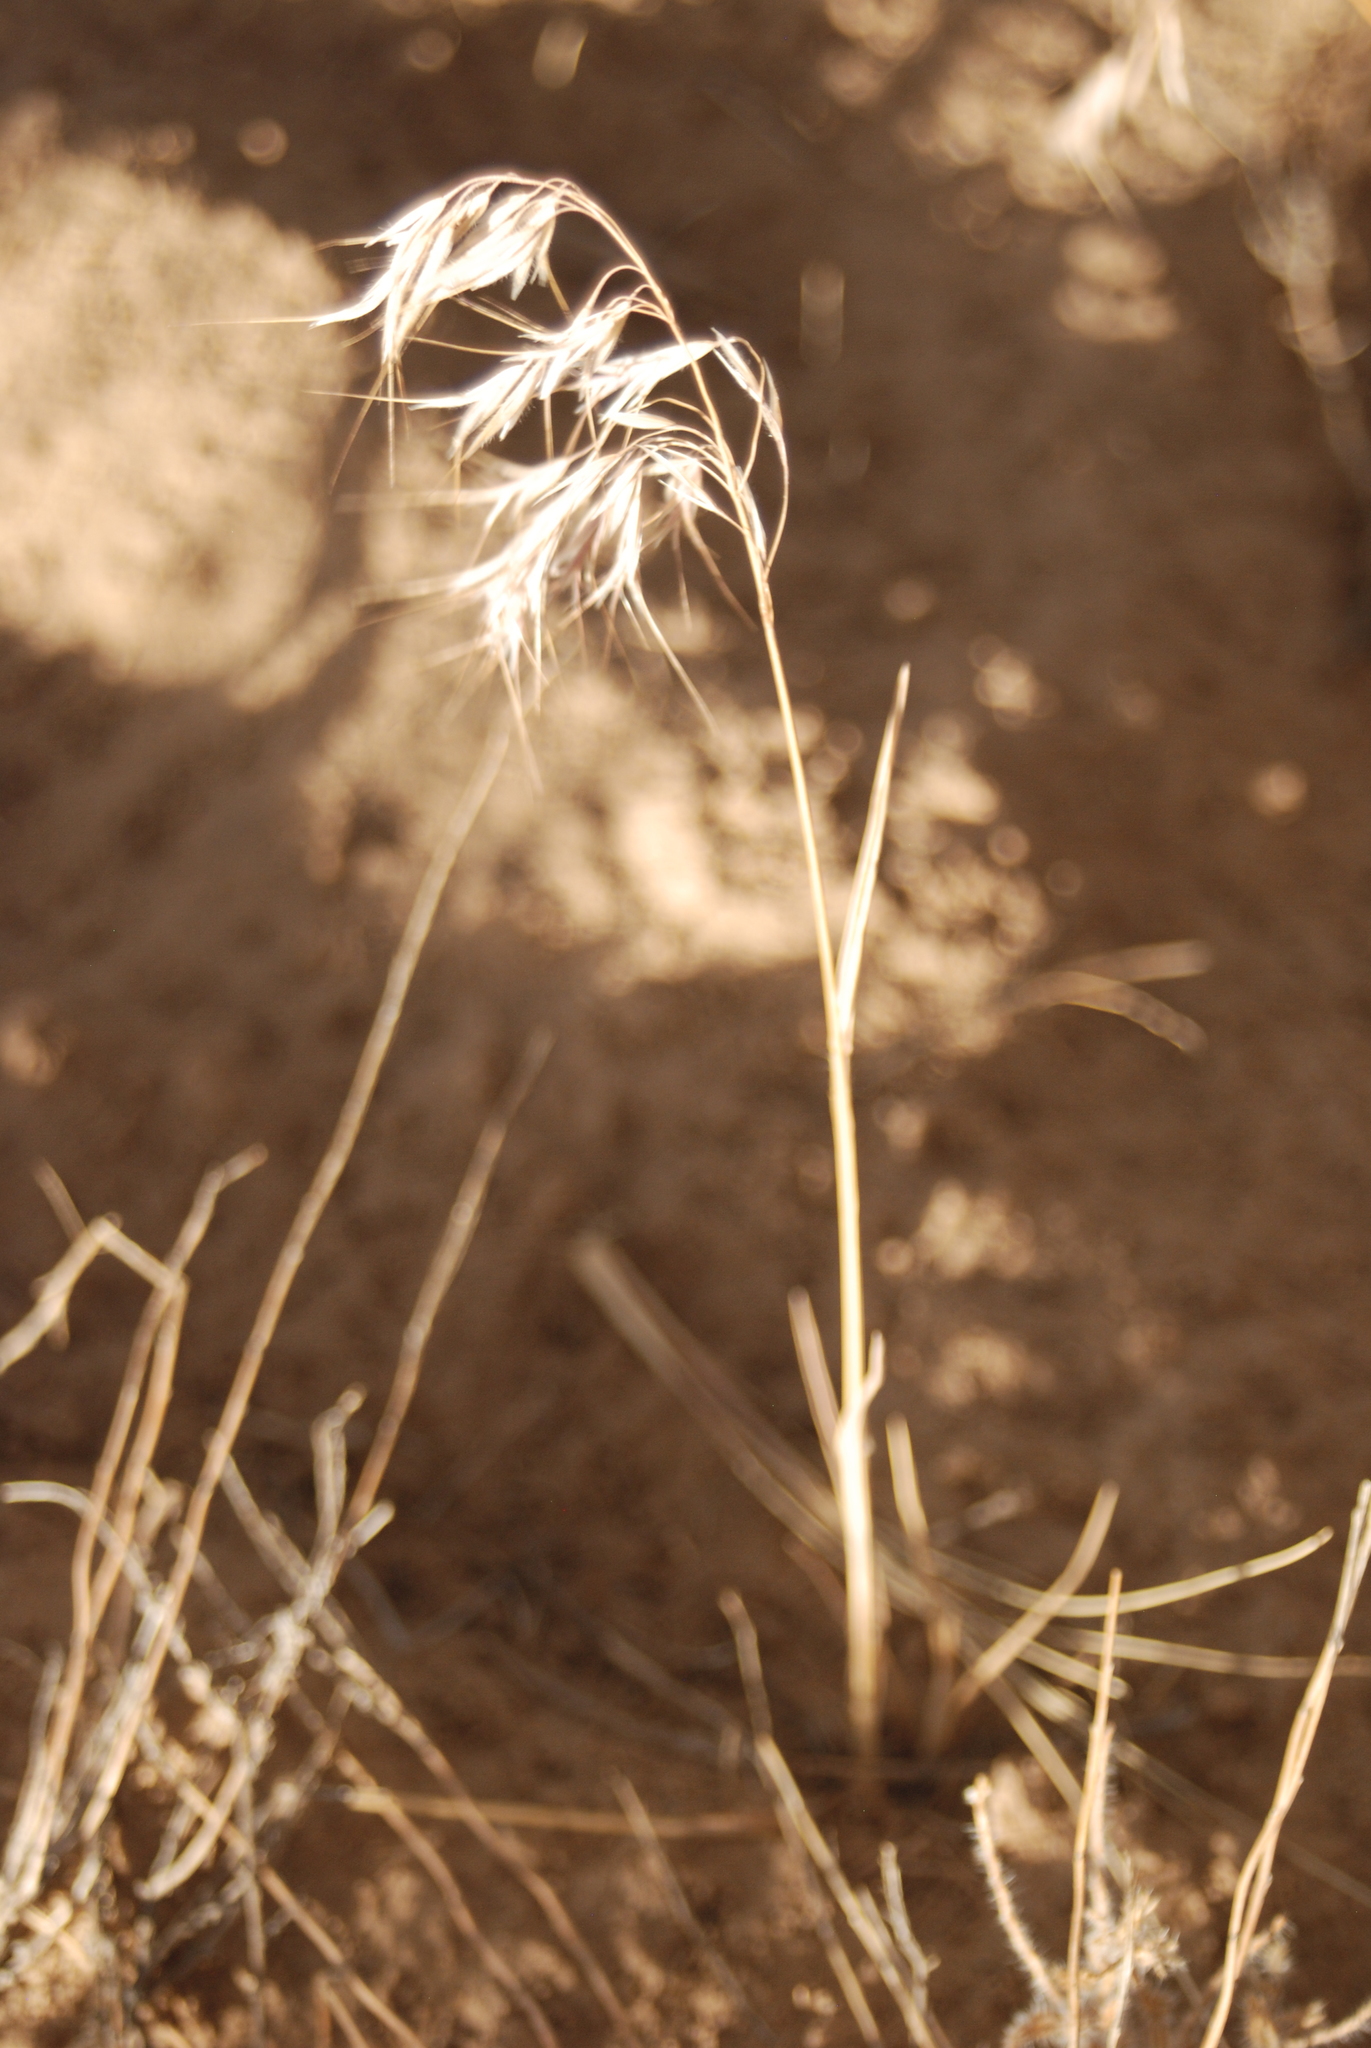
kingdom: Plantae
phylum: Tracheophyta
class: Liliopsida
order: Poales
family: Poaceae
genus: Bromus
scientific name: Bromus tectorum
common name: Cheatgrass
